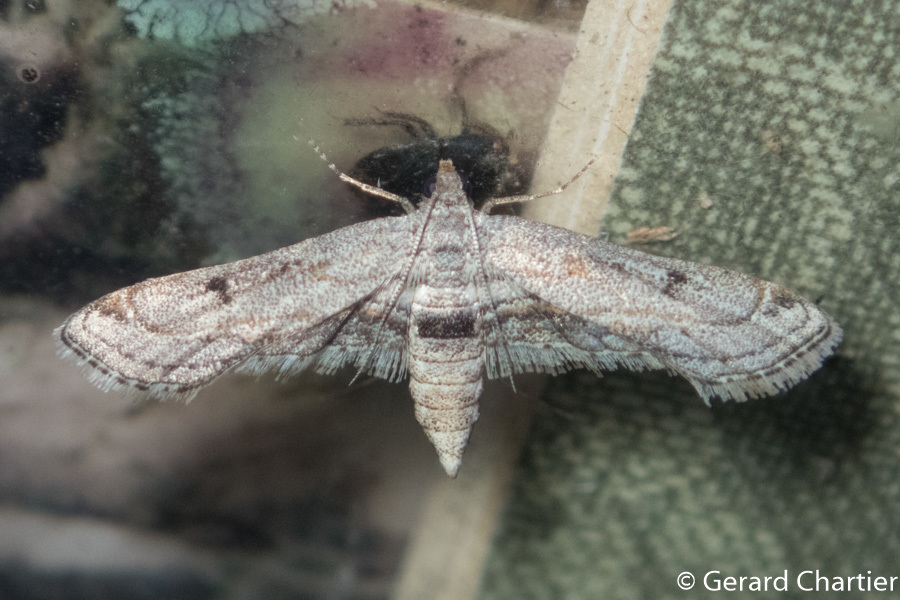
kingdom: Animalia
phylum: Arthropoda
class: Insecta
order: Lepidoptera
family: Crambidae
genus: Parapoynx
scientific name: Parapoynx longialata
